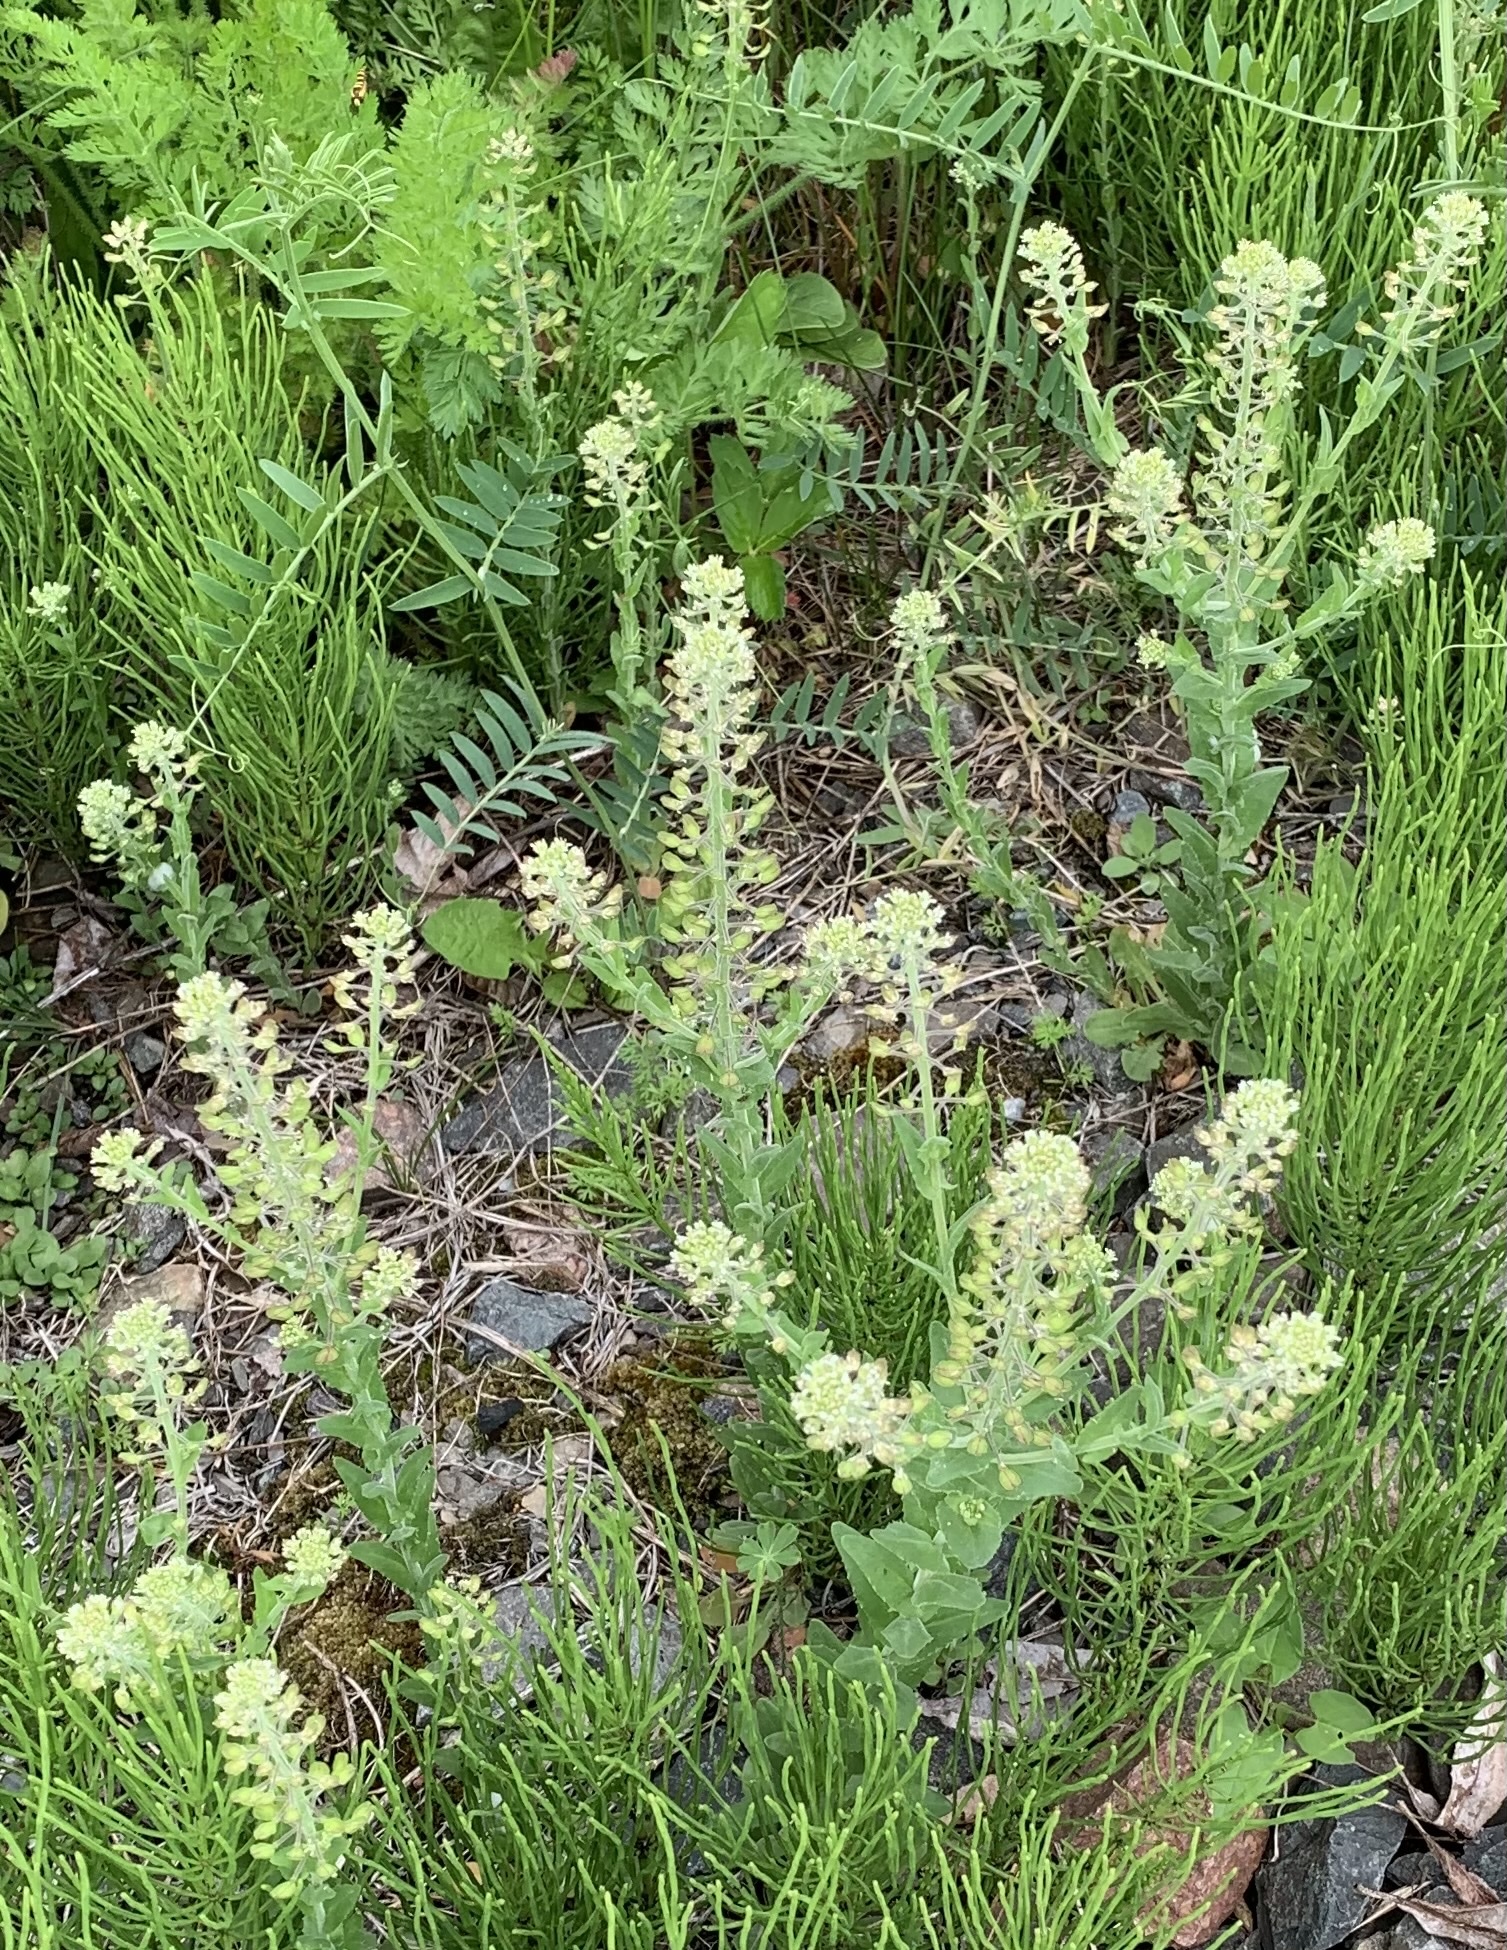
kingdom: Plantae
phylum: Tracheophyta
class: Magnoliopsida
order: Brassicales
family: Brassicaceae
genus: Lepidium
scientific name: Lepidium campestre
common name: Field pepperwort
